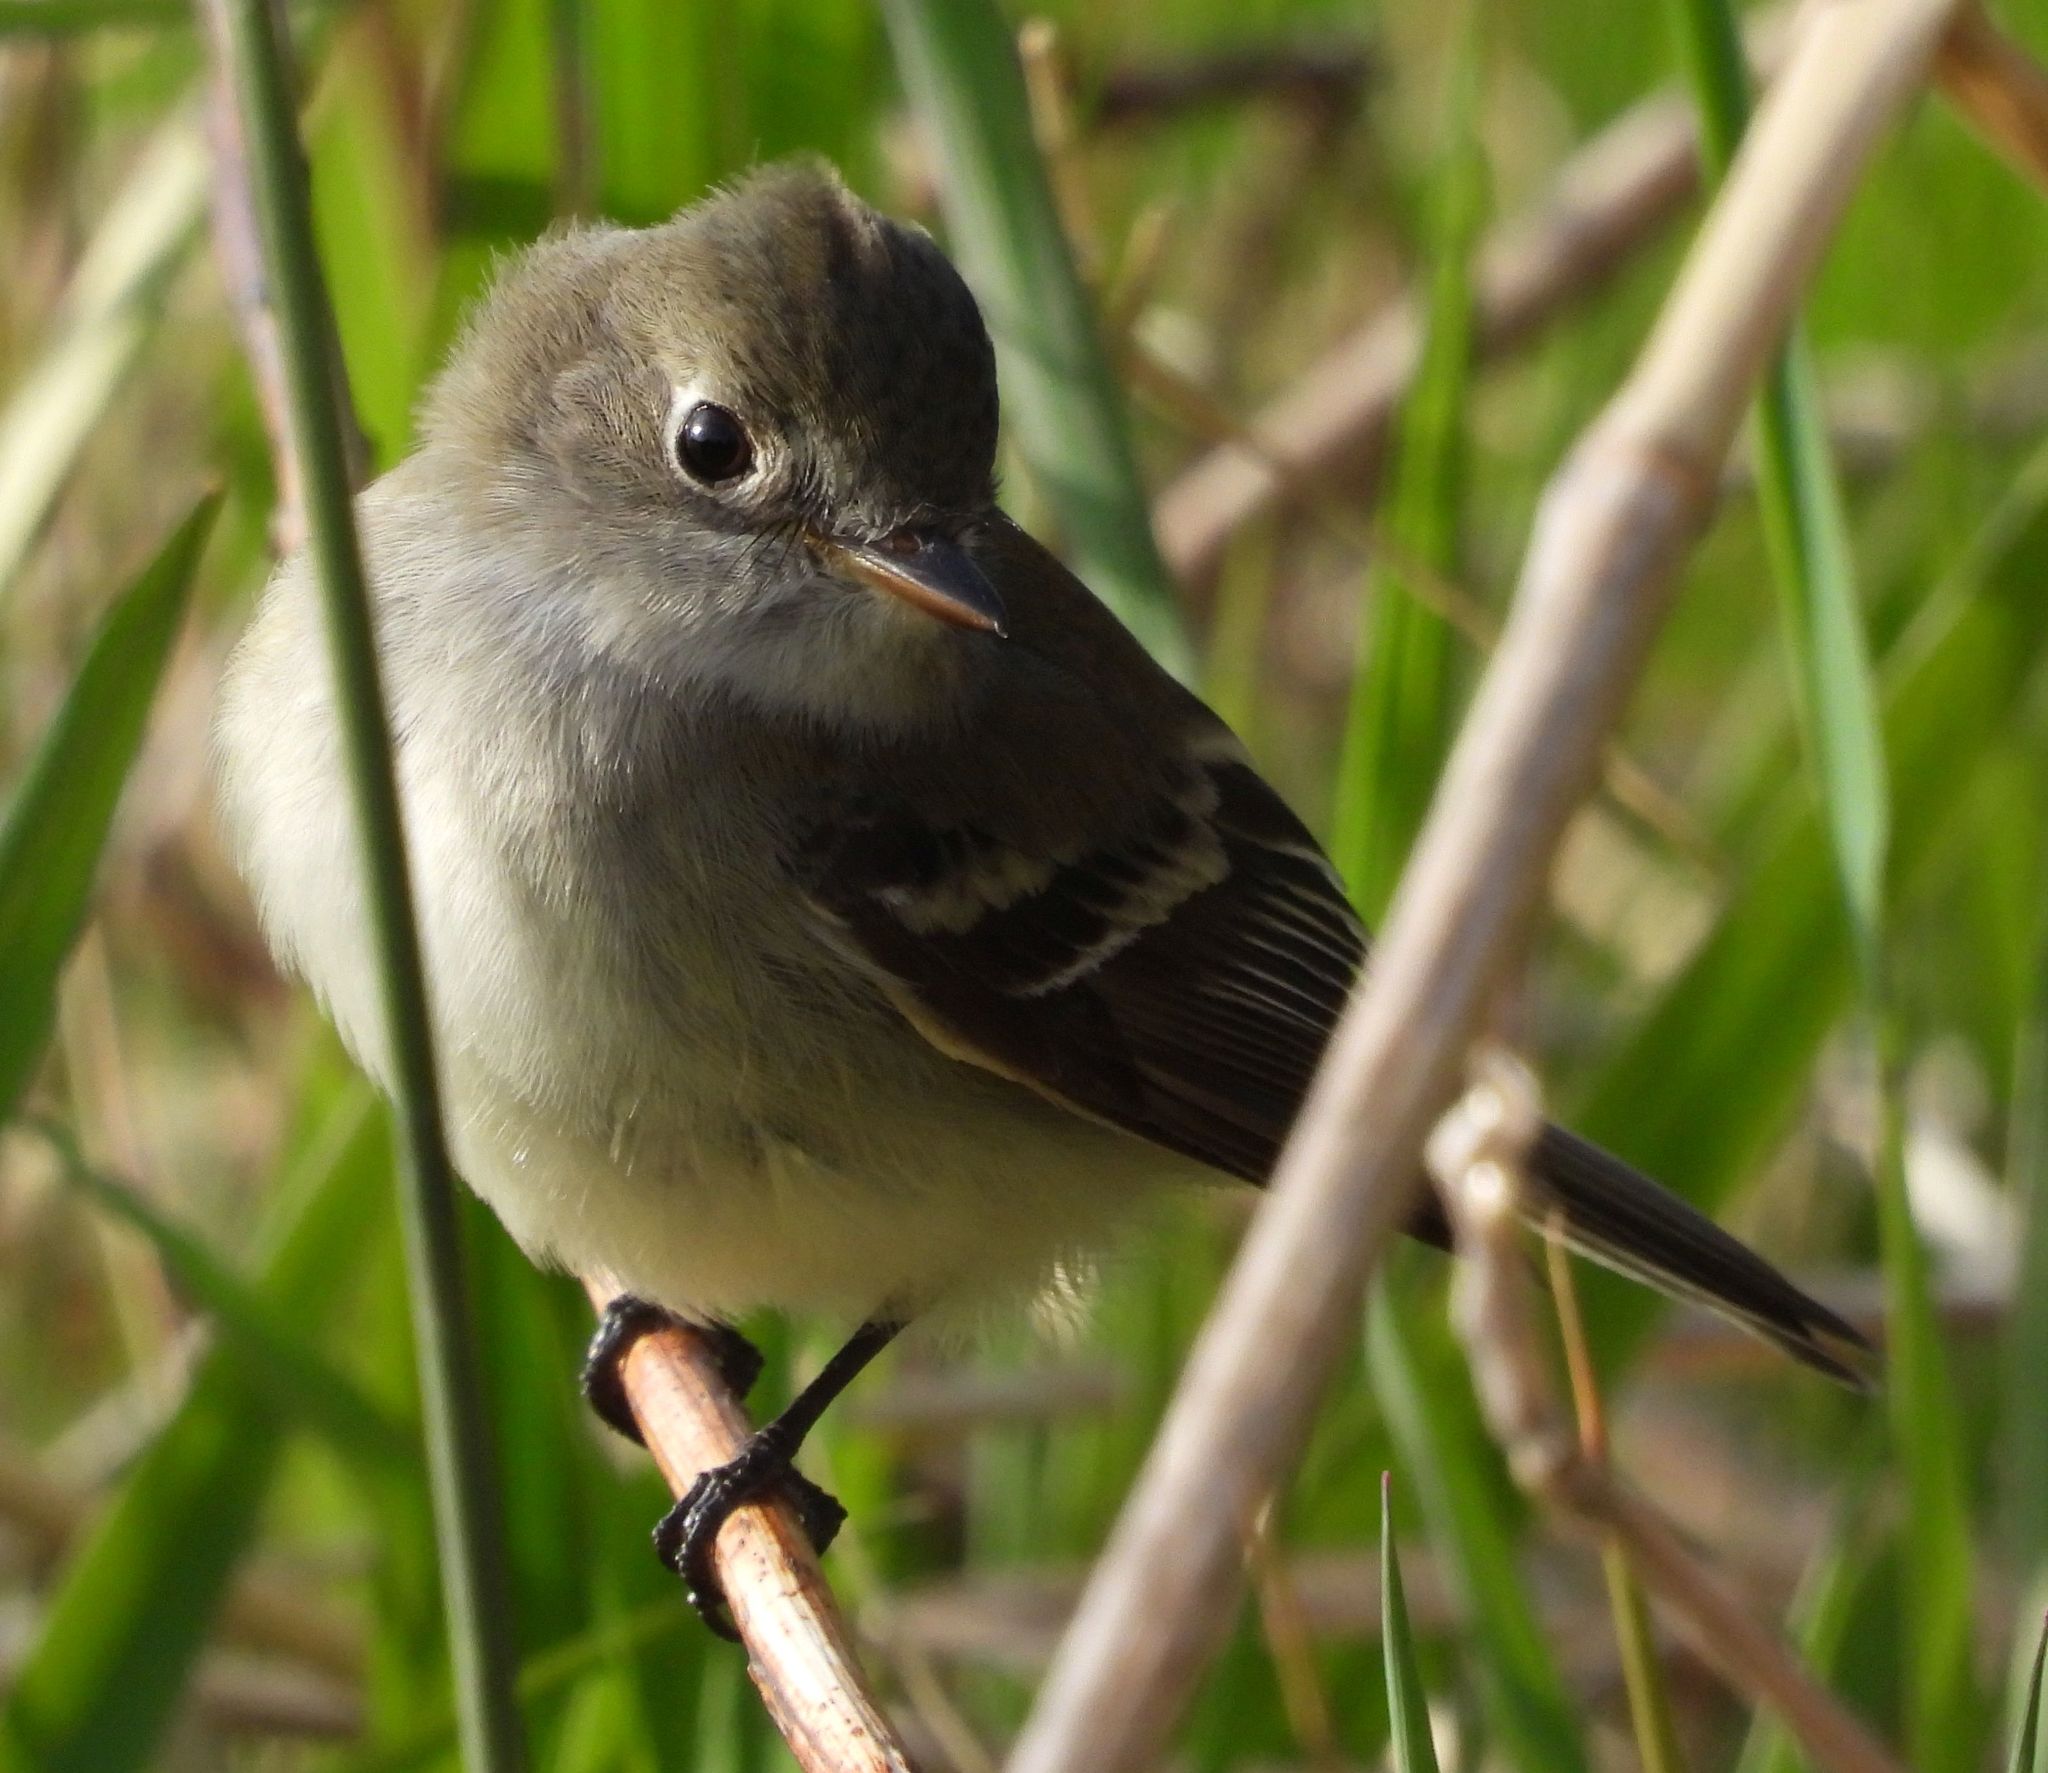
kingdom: Animalia
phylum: Chordata
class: Aves
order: Passeriformes
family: Tyrannidae
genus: Empidonax
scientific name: Empidonax minimus
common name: Least flycatcher
